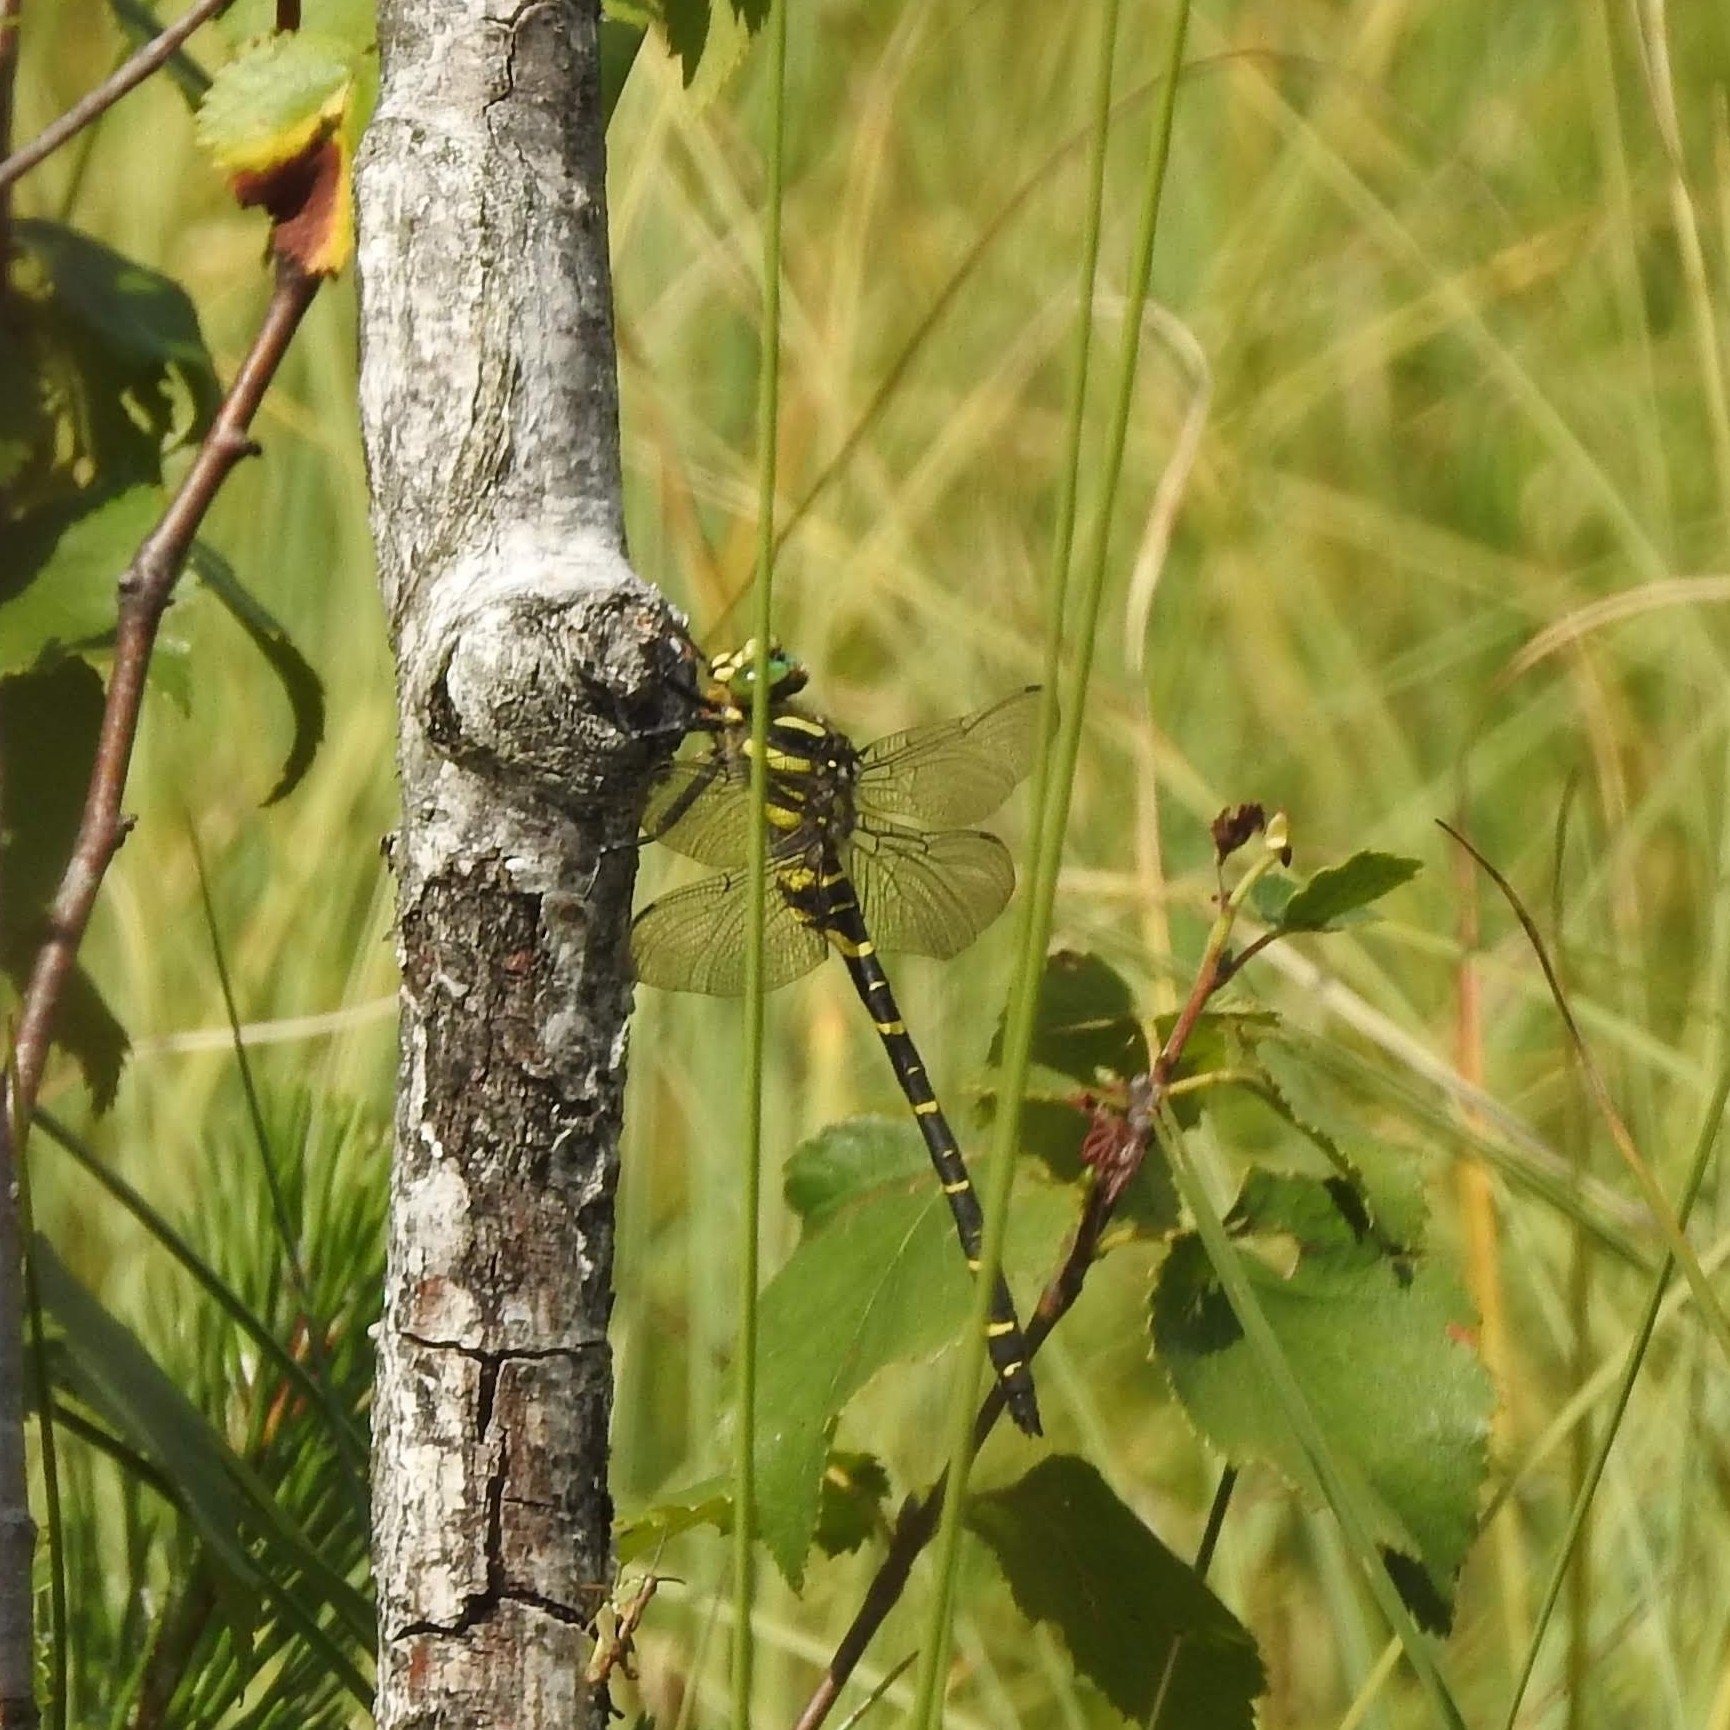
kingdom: Animalia
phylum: Arthropoda
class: Insecta
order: Odonata
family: Cordulegastridae
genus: Cordulegaster
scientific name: Cordulegaster boltonii
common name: Golden-ringed dragonfly
